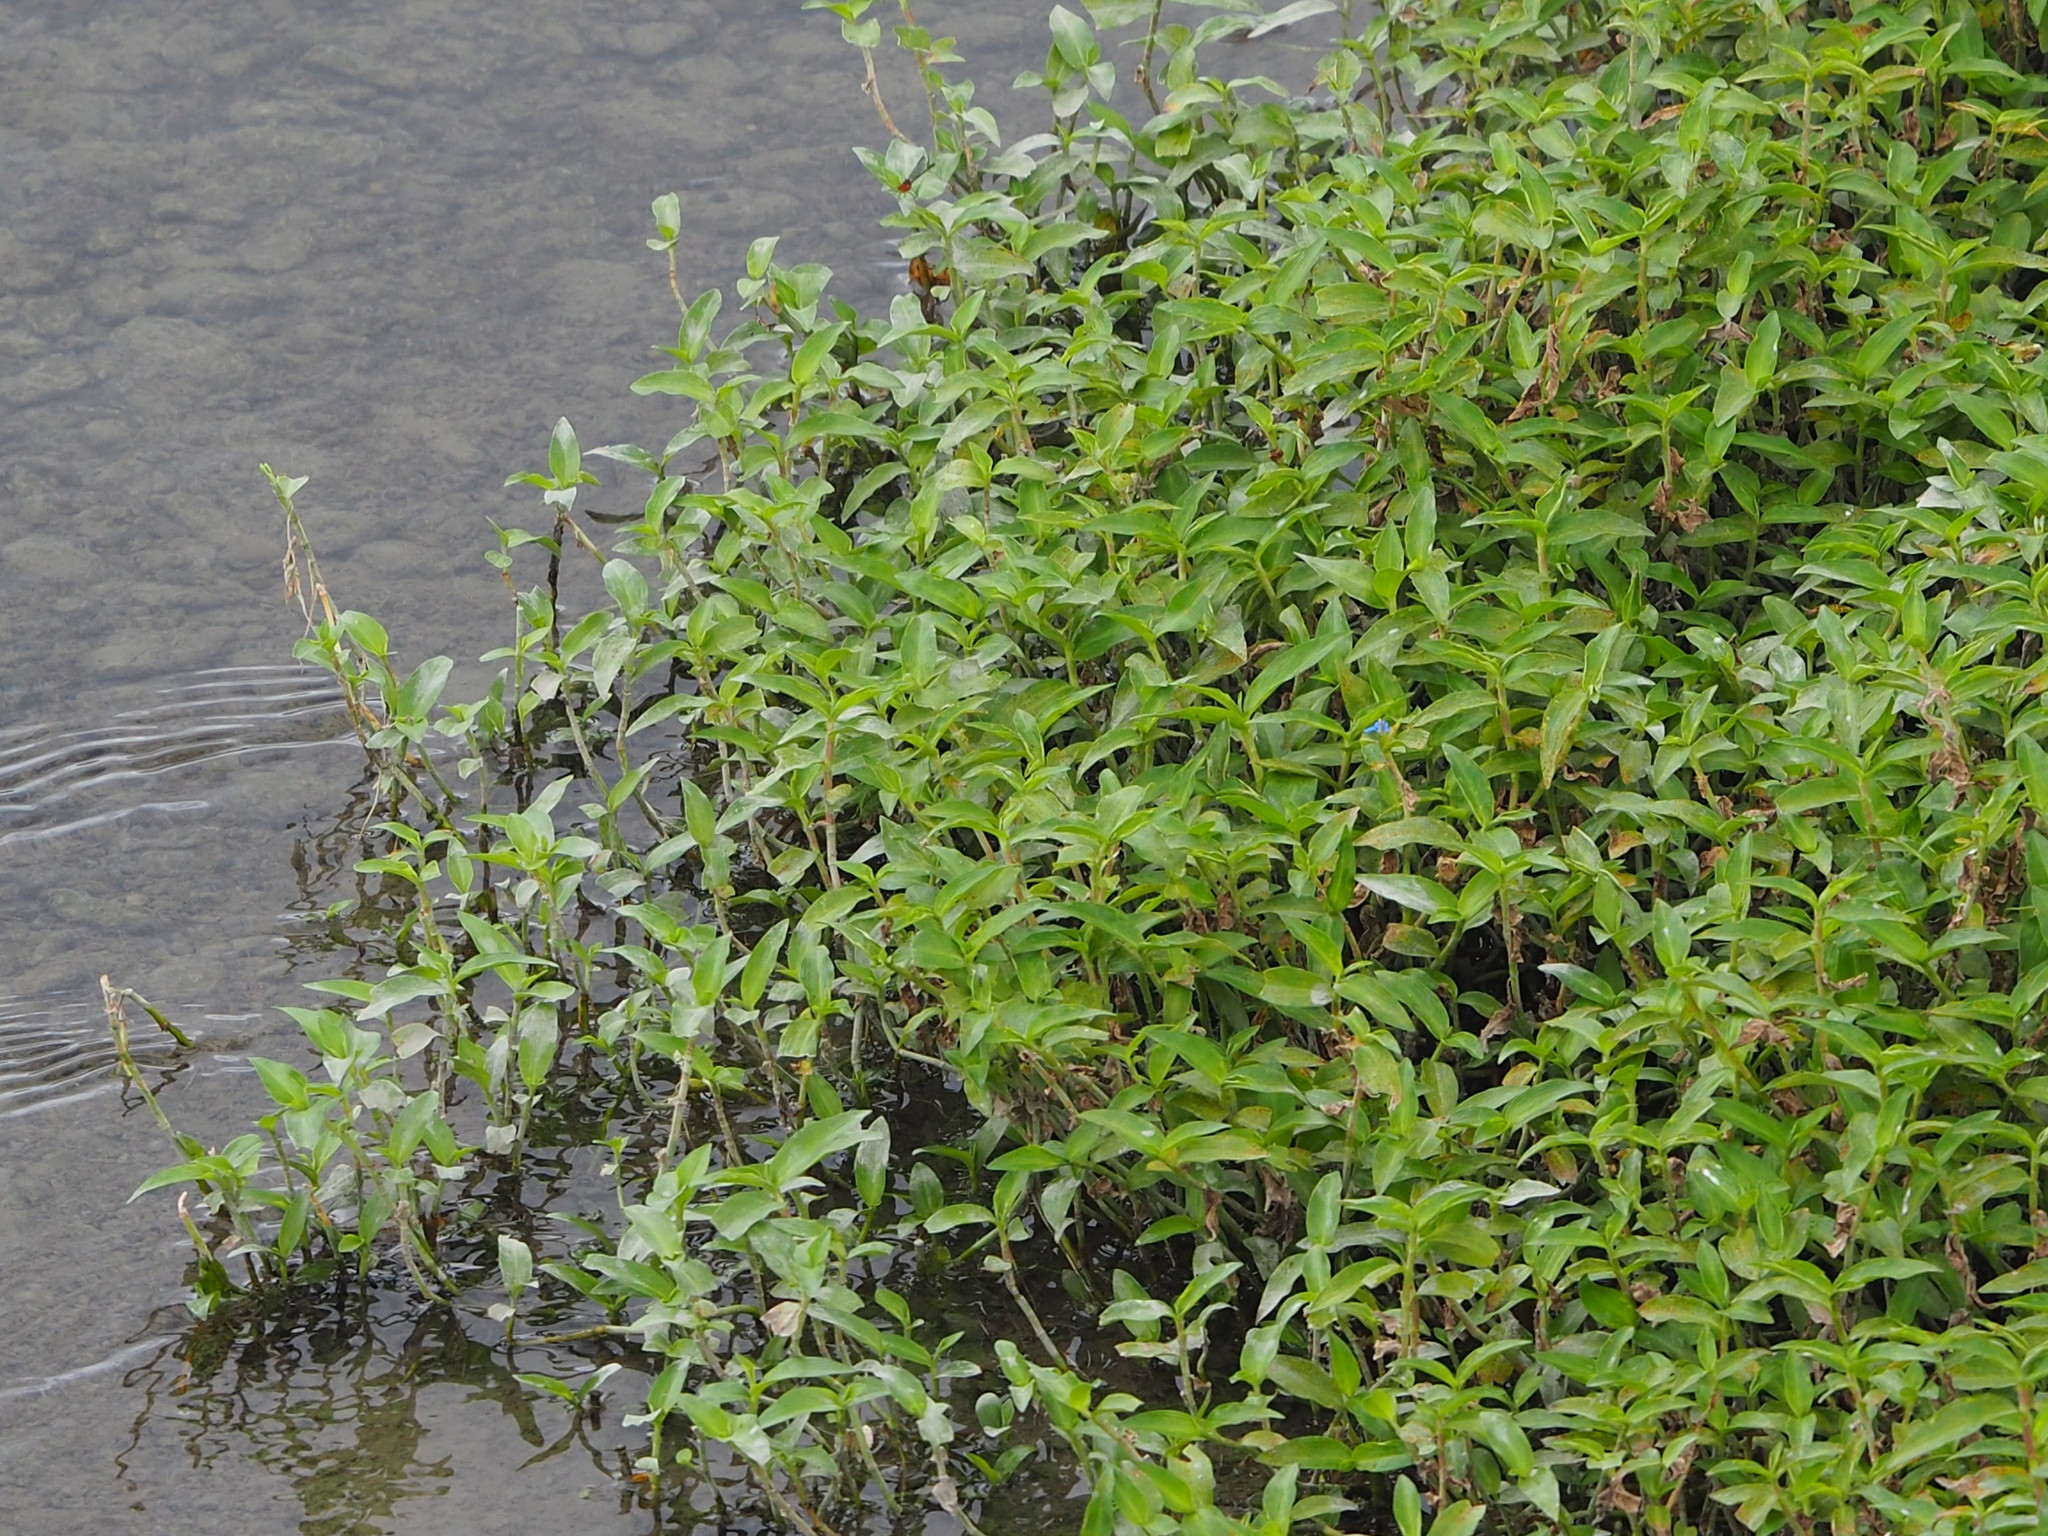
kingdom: Plantae
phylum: Tracheophyta
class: Liliopsida
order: Commelinales
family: Commelinaceae
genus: Commelina
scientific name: Commelina diffusa
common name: Climbing dayflower
